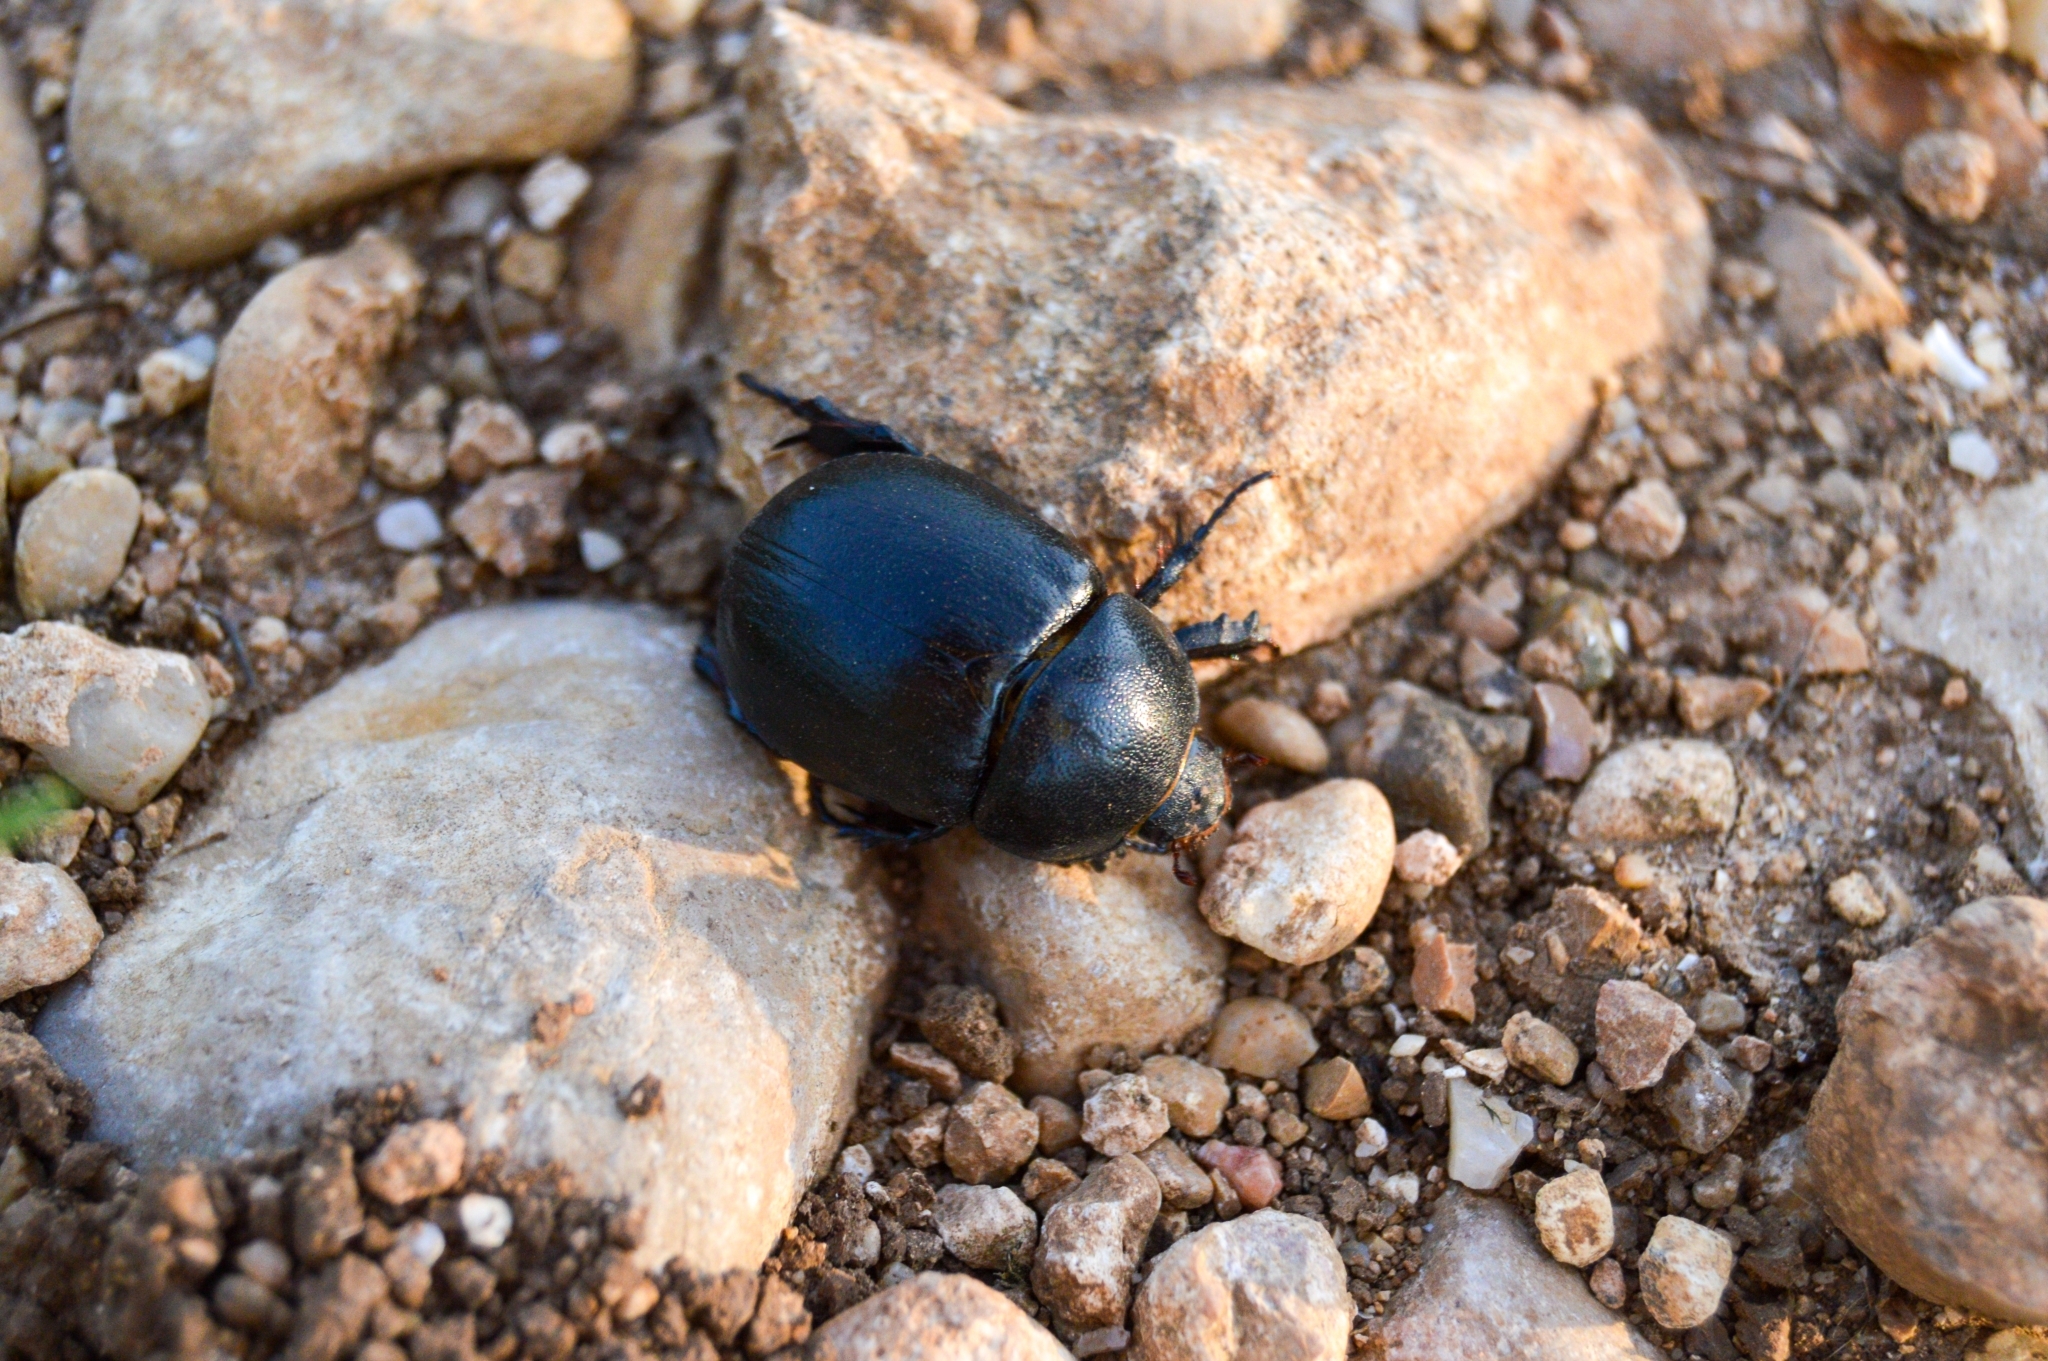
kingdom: Animalia
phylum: Arthropoda
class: Insecta
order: Coleoptera
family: Scarabaeidae
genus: Pentodon
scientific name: Pentodon idiota
